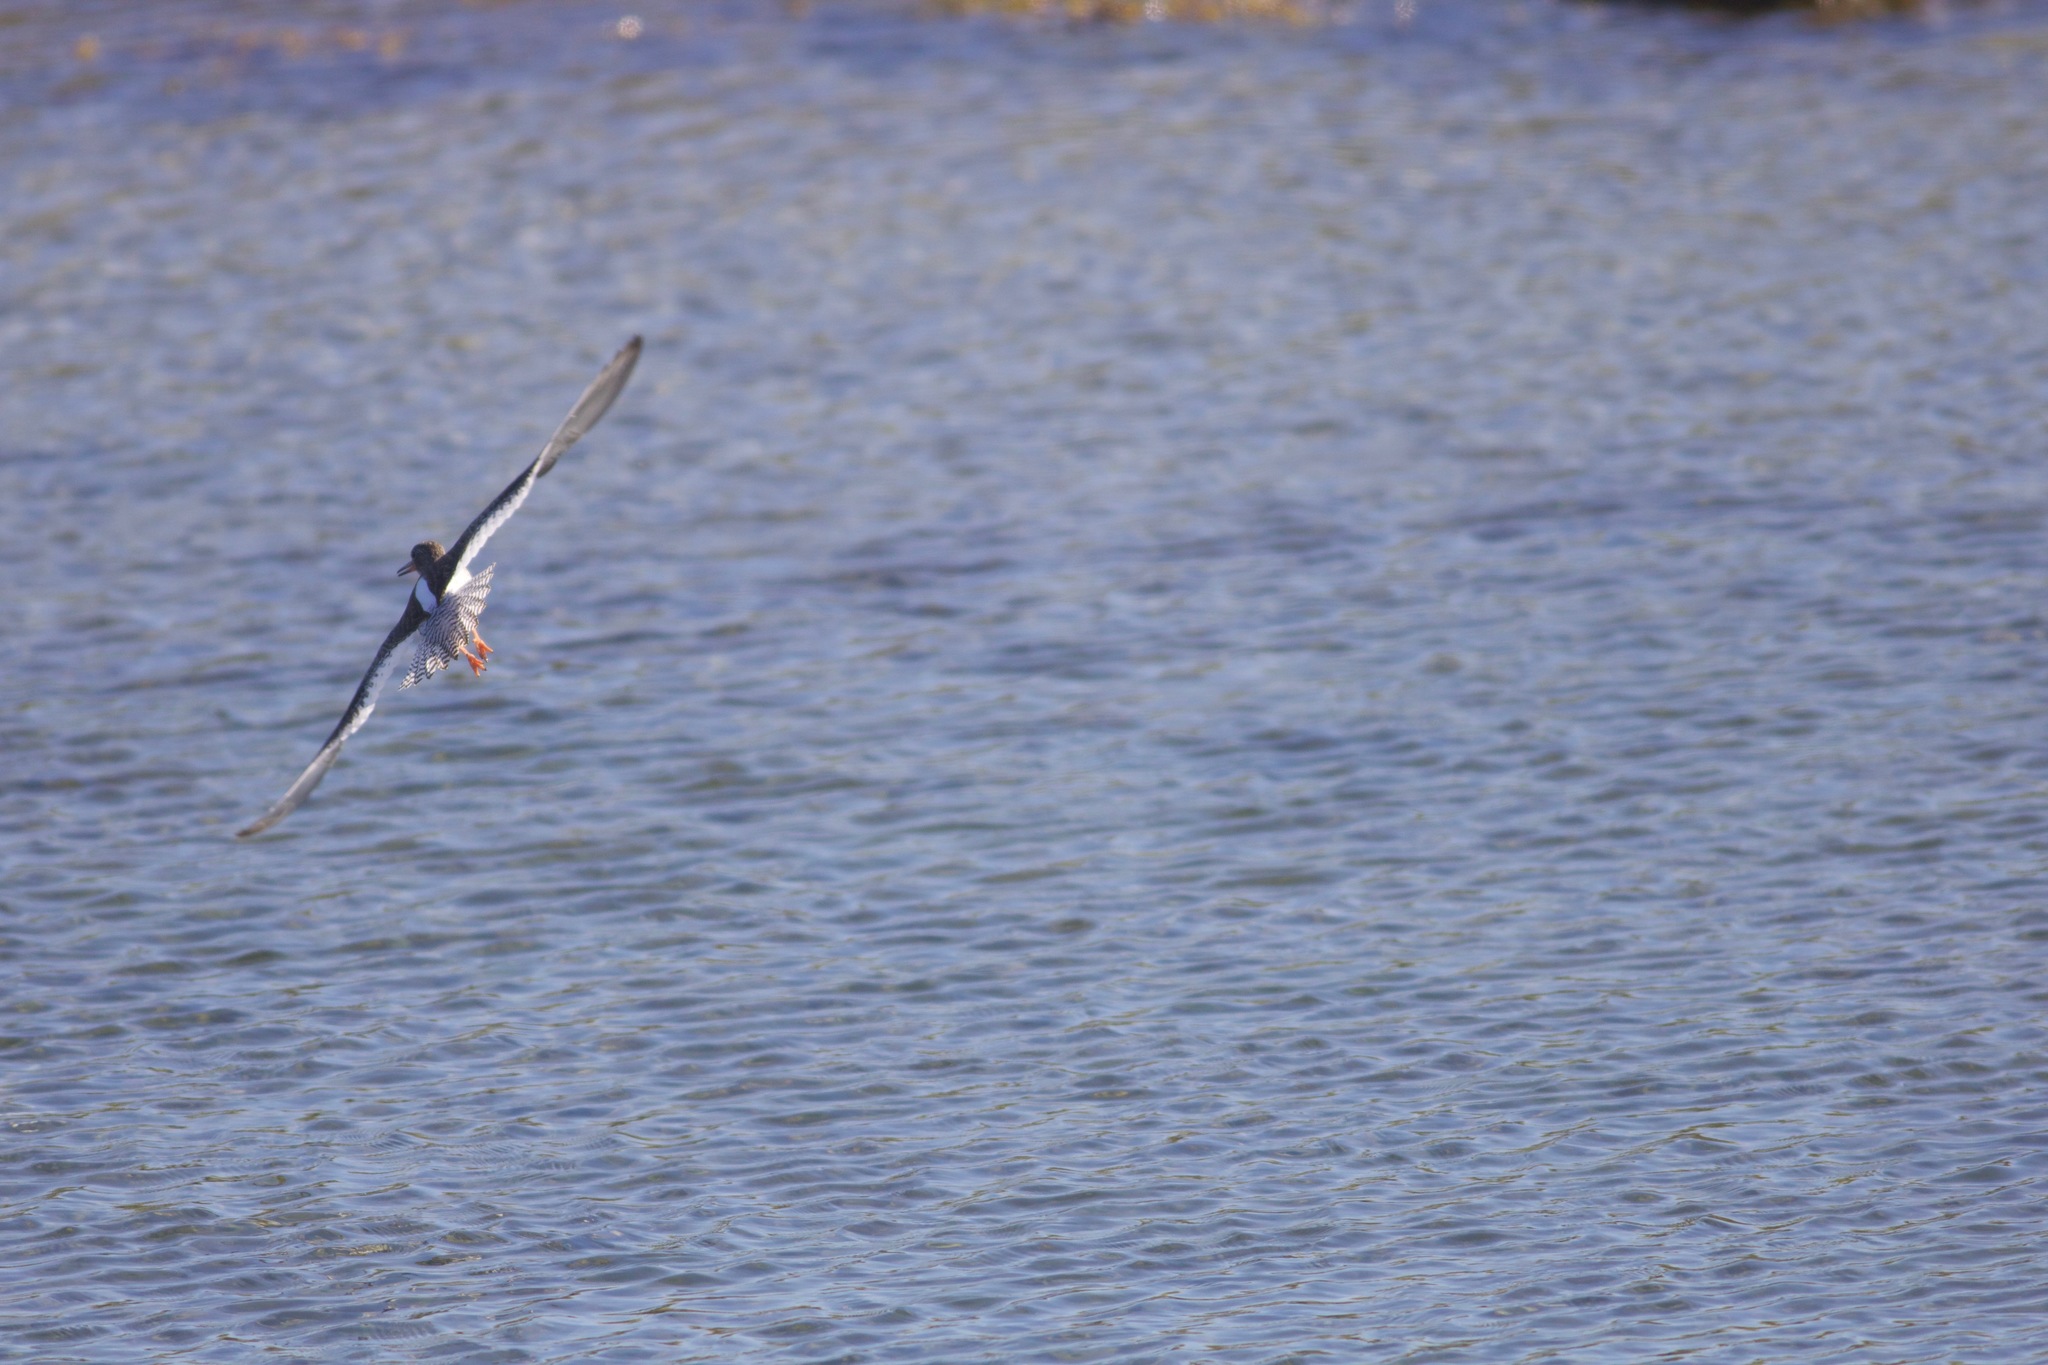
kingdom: Animalia
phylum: Chordata
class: Aves
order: Charadriiformes
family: Scolopacidae
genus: Tringa
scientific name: Tringa totanus
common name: Common redshank
